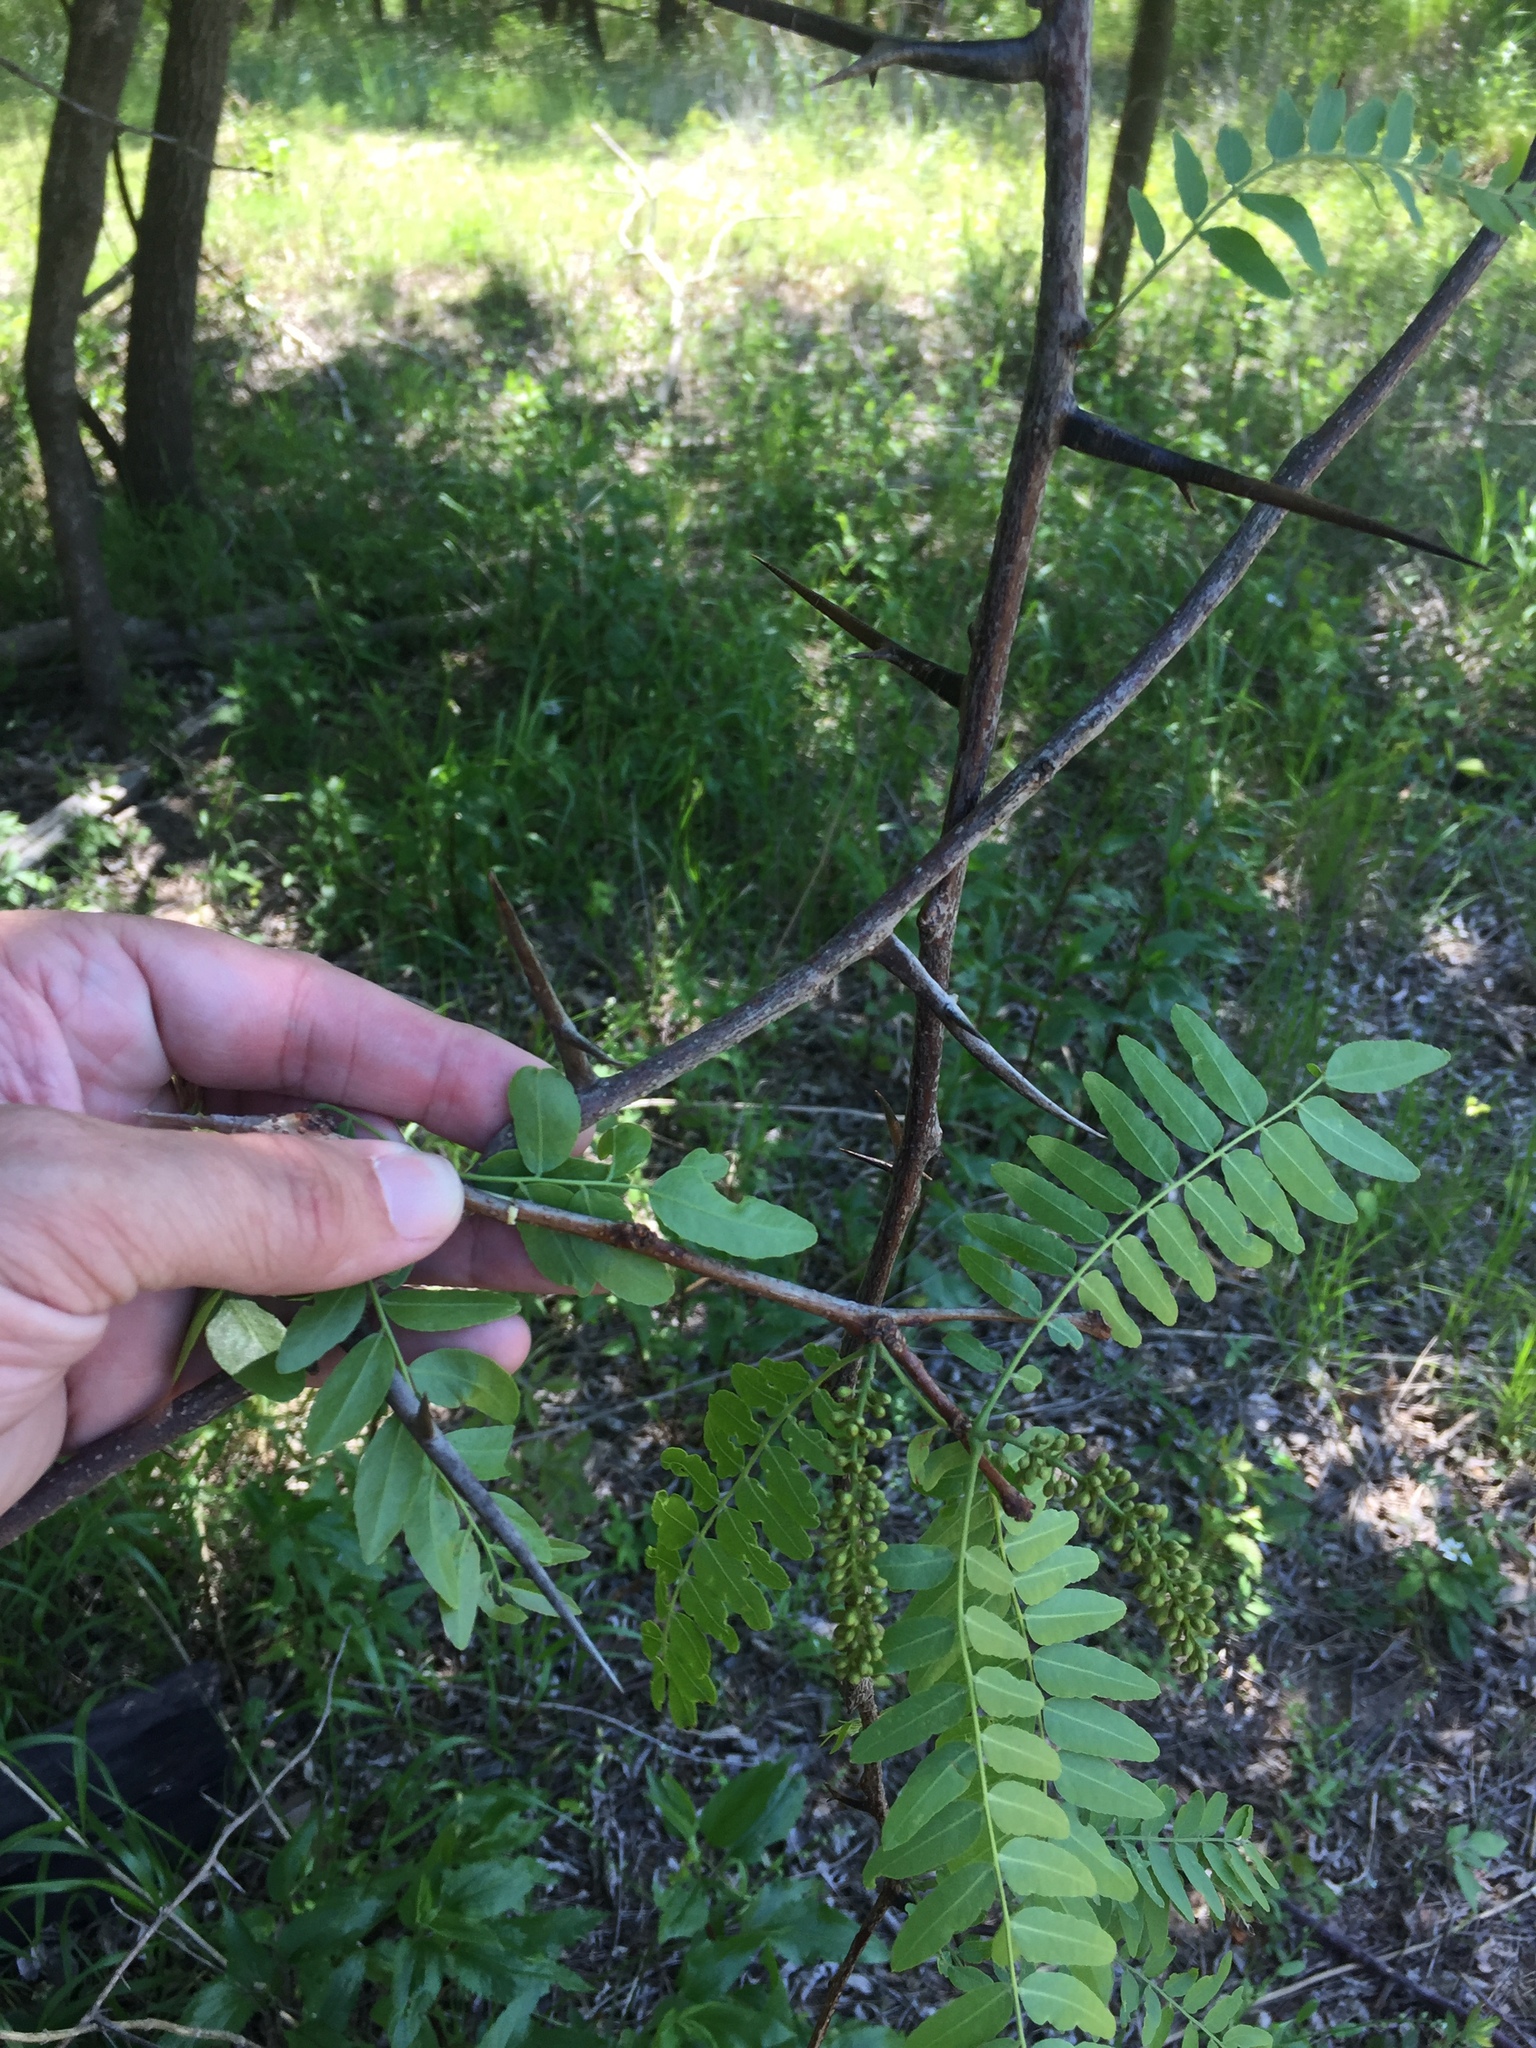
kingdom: Plantae
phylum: Tracheophyta
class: Magnoliopsida
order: Fabales
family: Fabaceae
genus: Gleditsia
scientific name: Gleditsia triacanthos
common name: Common honeylocust
